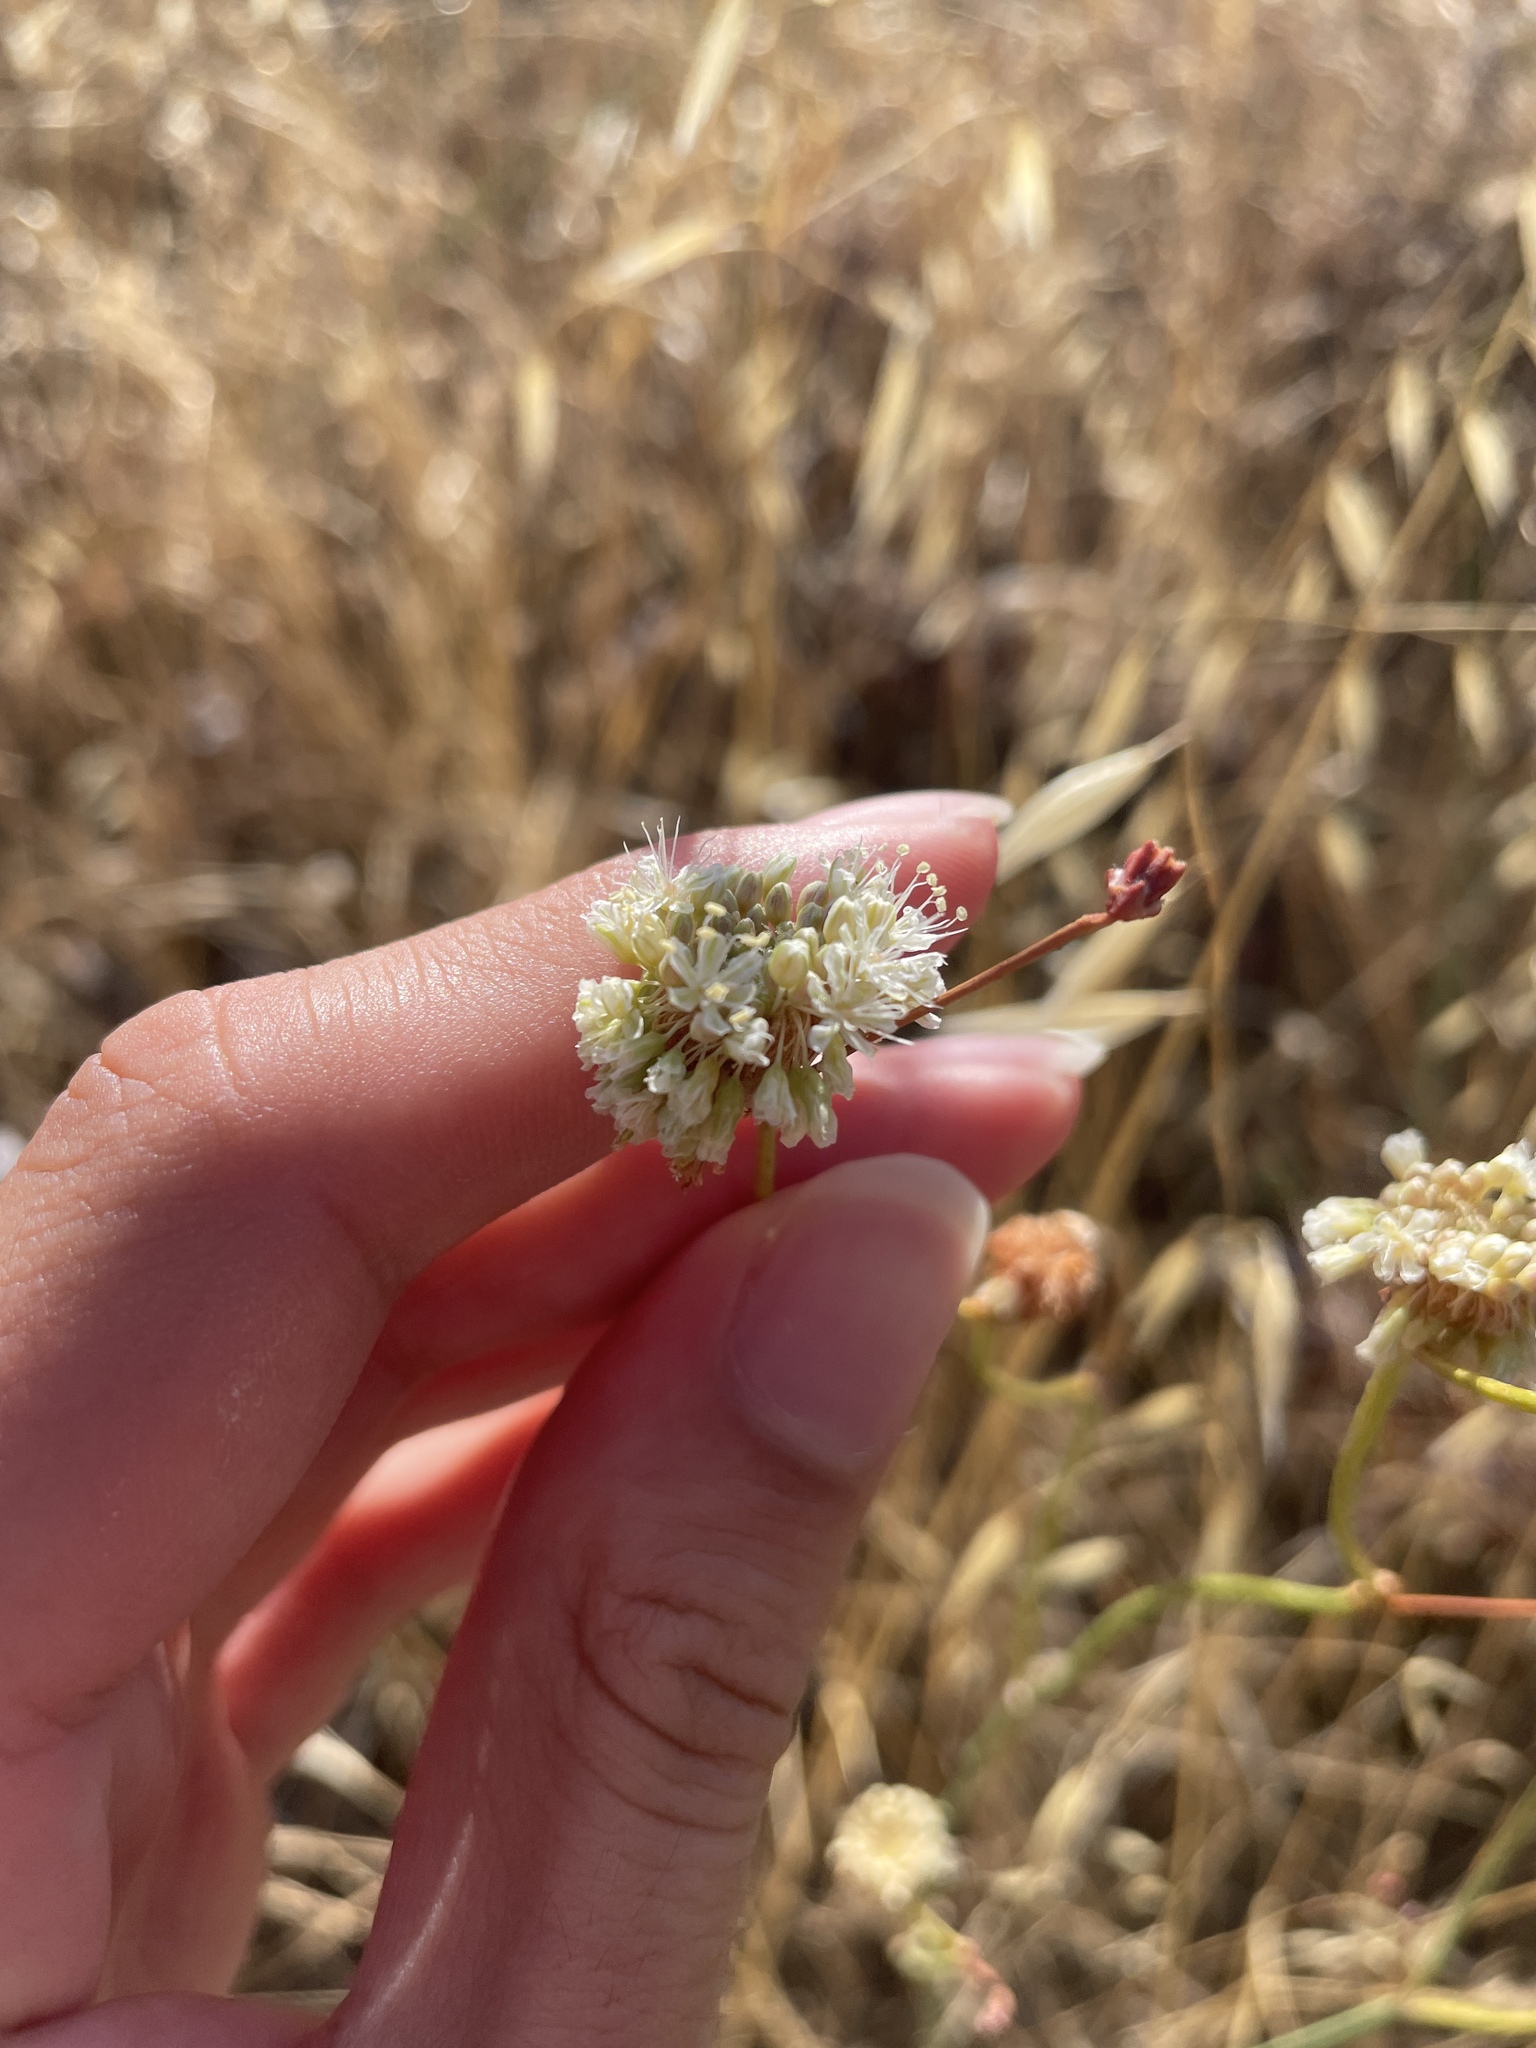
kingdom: Plantae
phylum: Tracheophyta
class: Magnoliopsida
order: Caryophyllales
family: Polygonaceae
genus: Eriogonum
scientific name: Eriogonum nudum
